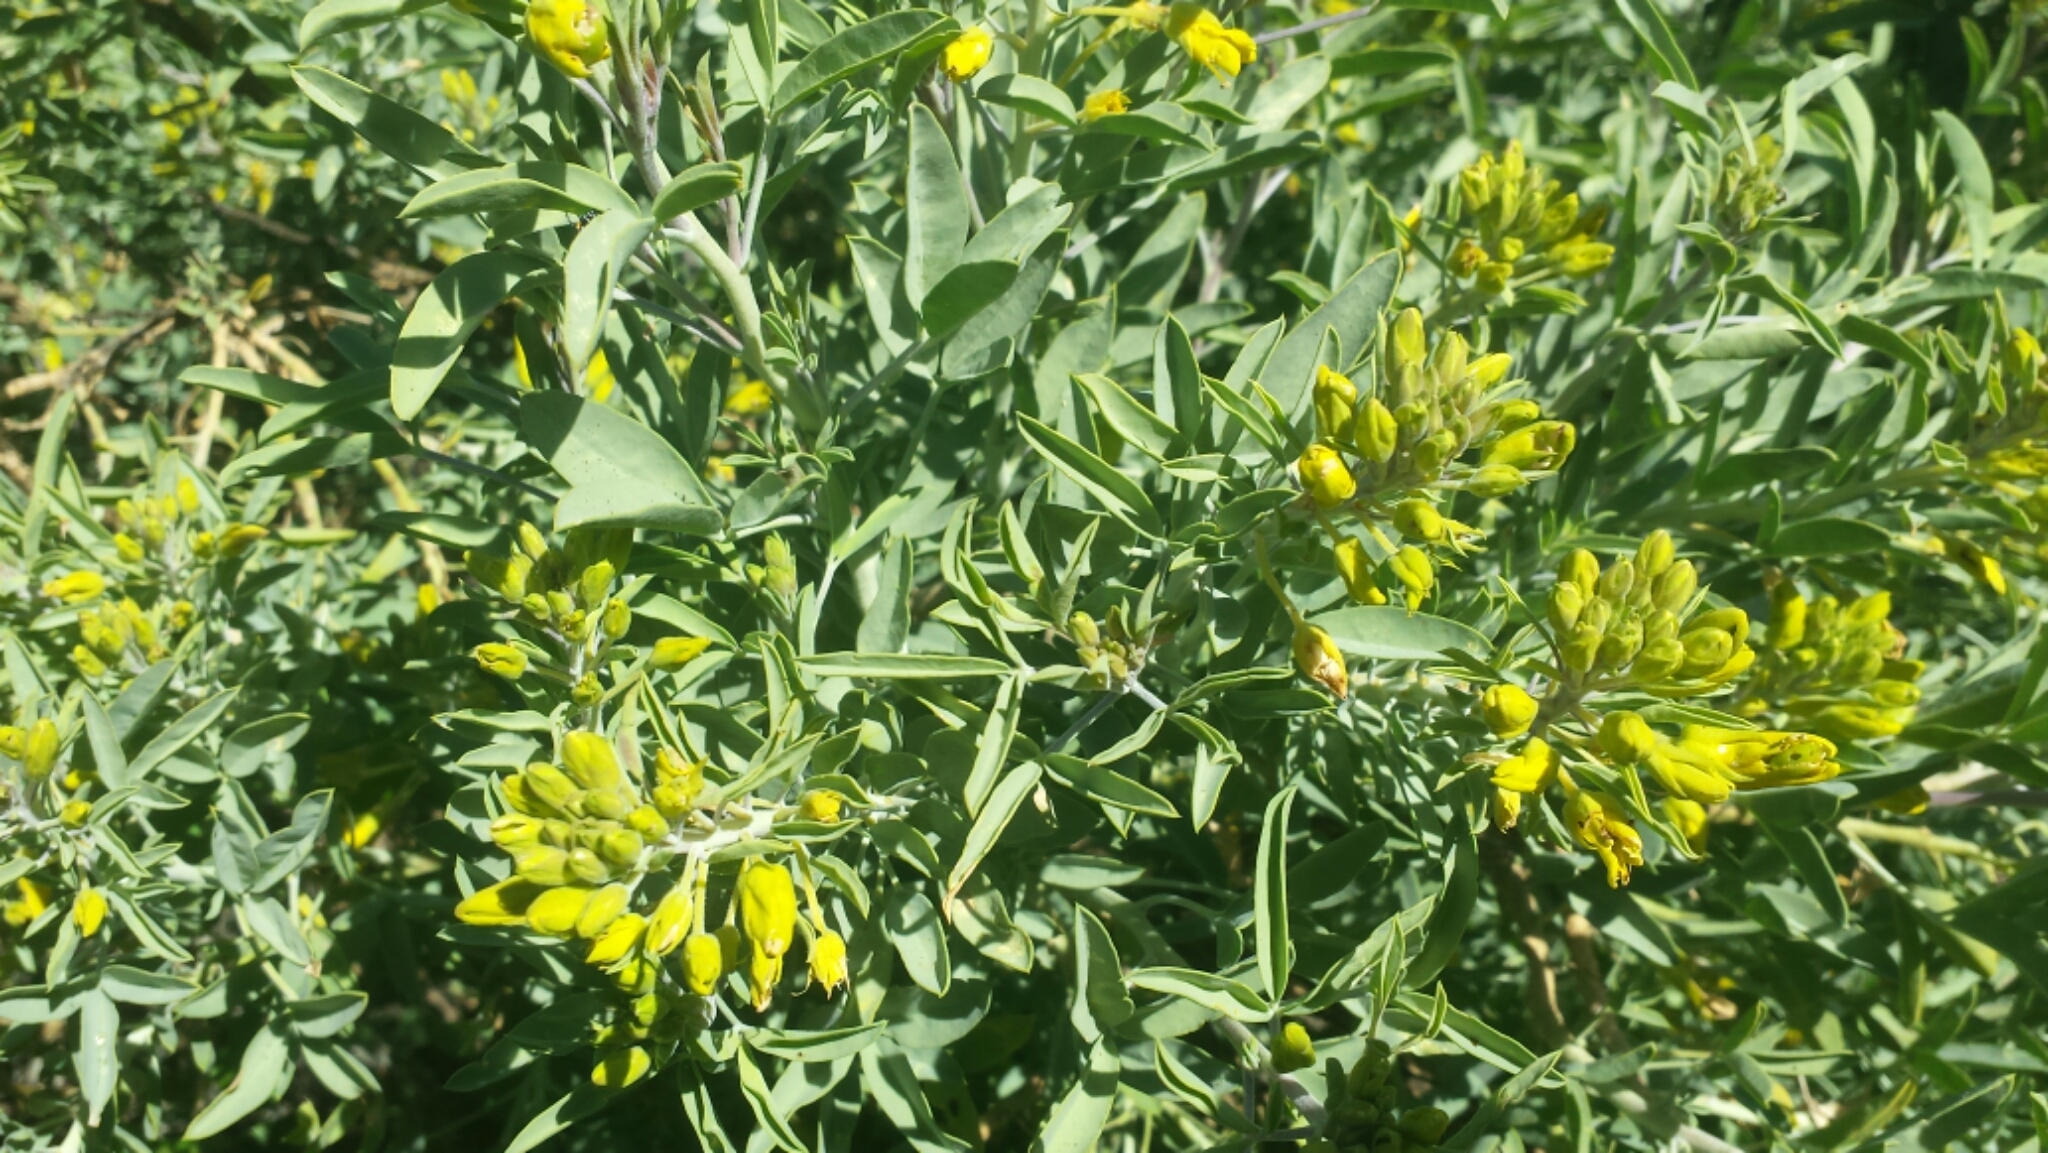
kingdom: Plantae
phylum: Tracheophyta
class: Magnoliopsida
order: Brassicales
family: Cleomaceae
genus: Cleomella
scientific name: Cleomella arborea
